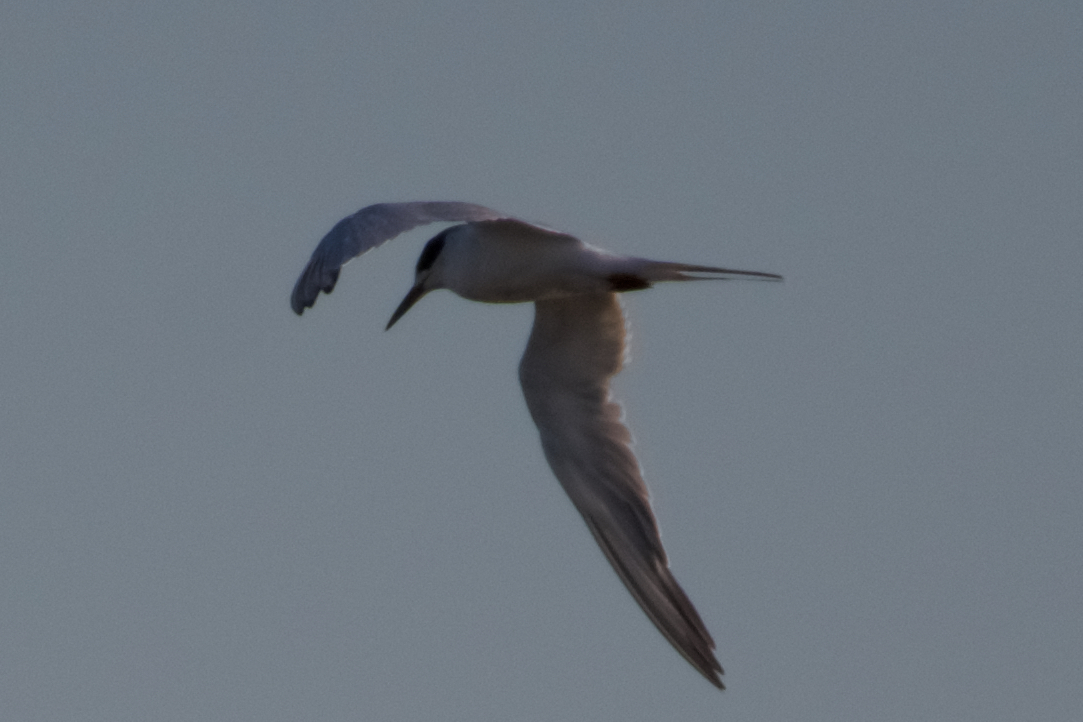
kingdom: Animalia
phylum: Chordata
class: Aves
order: Charadriiformes
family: Laridae
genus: Sterna
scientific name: Sterna forsteri
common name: Forster's tern
